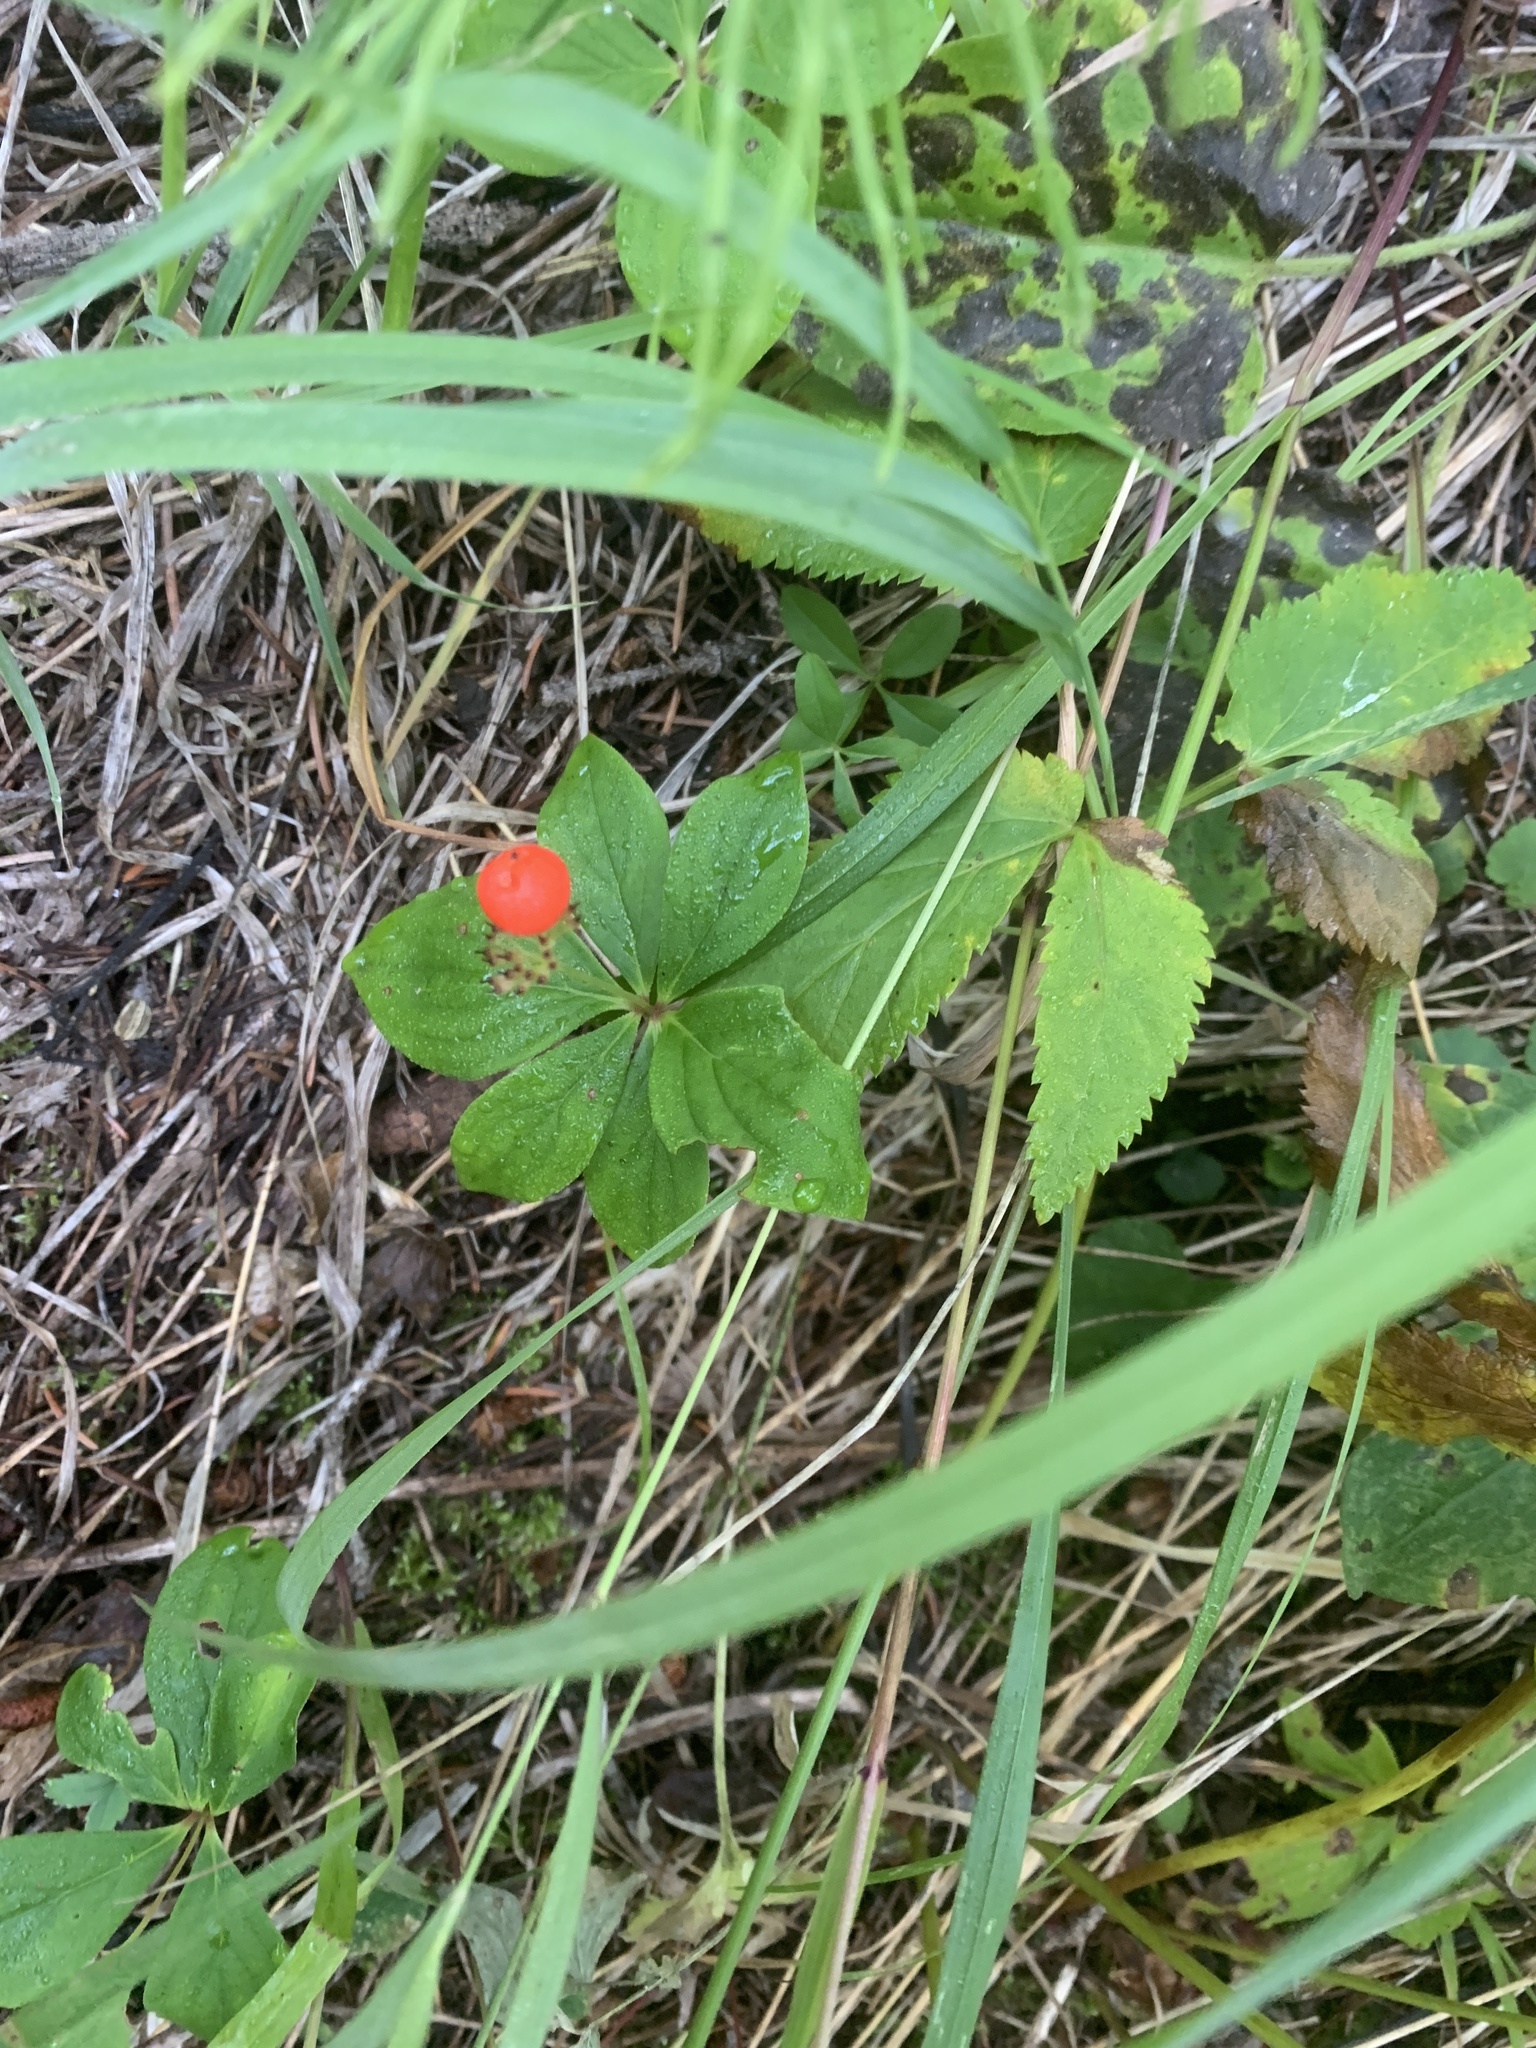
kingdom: Plantae
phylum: Tracheophyta
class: Magnoliopsida
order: Cornales
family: Cornaceae
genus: Cornus
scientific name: Cornus canadensis
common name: Creeping dogwood
